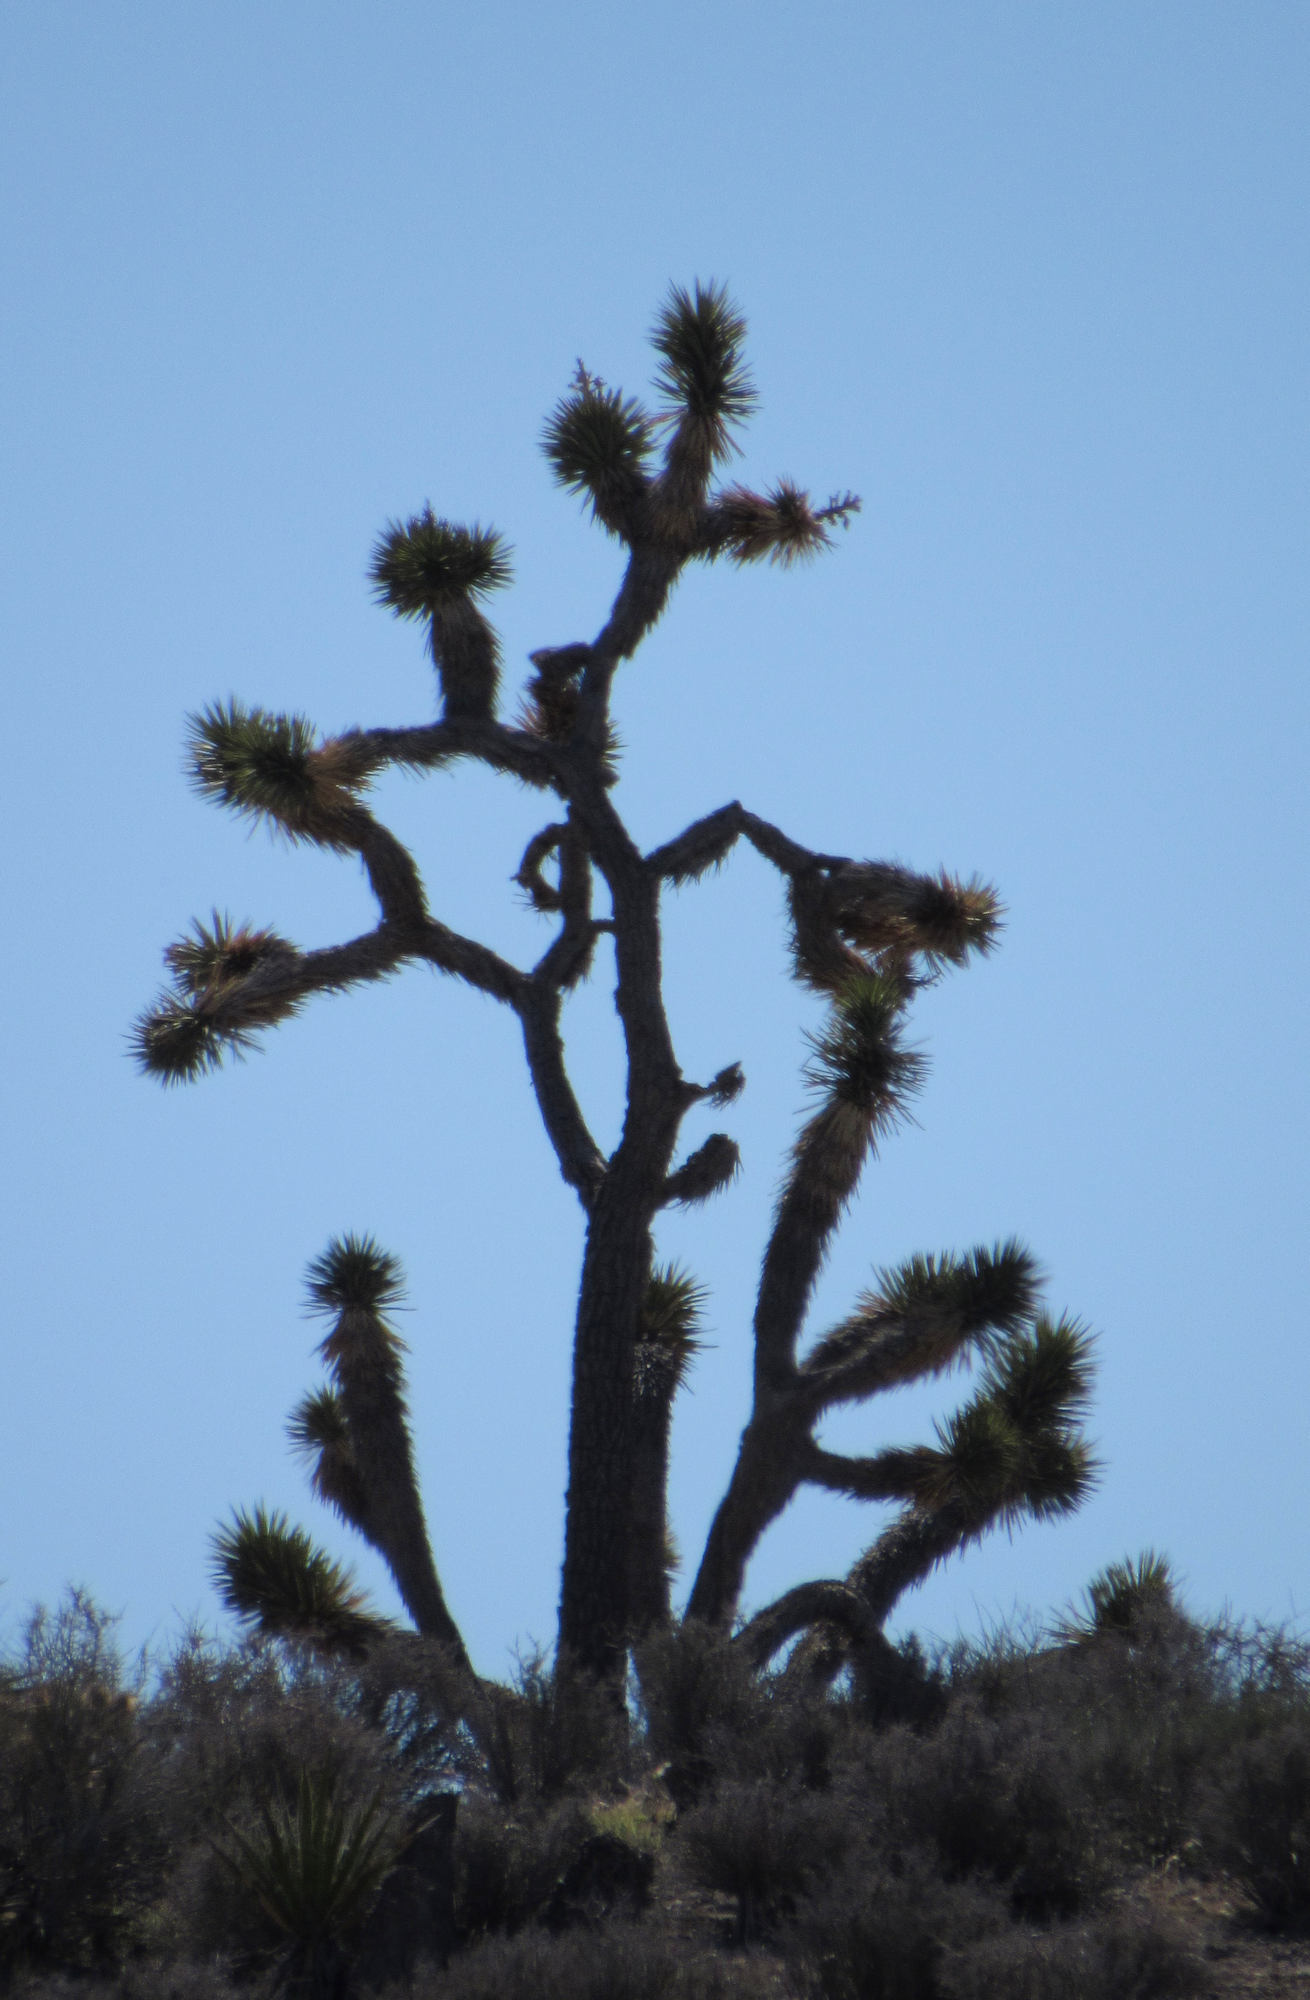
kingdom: Plantae
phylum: Tracheophyta
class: Liliopsida
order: Asparagales
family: Asparagaceae
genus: Yucca
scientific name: Yucca brevifolia
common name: Joshua tree
